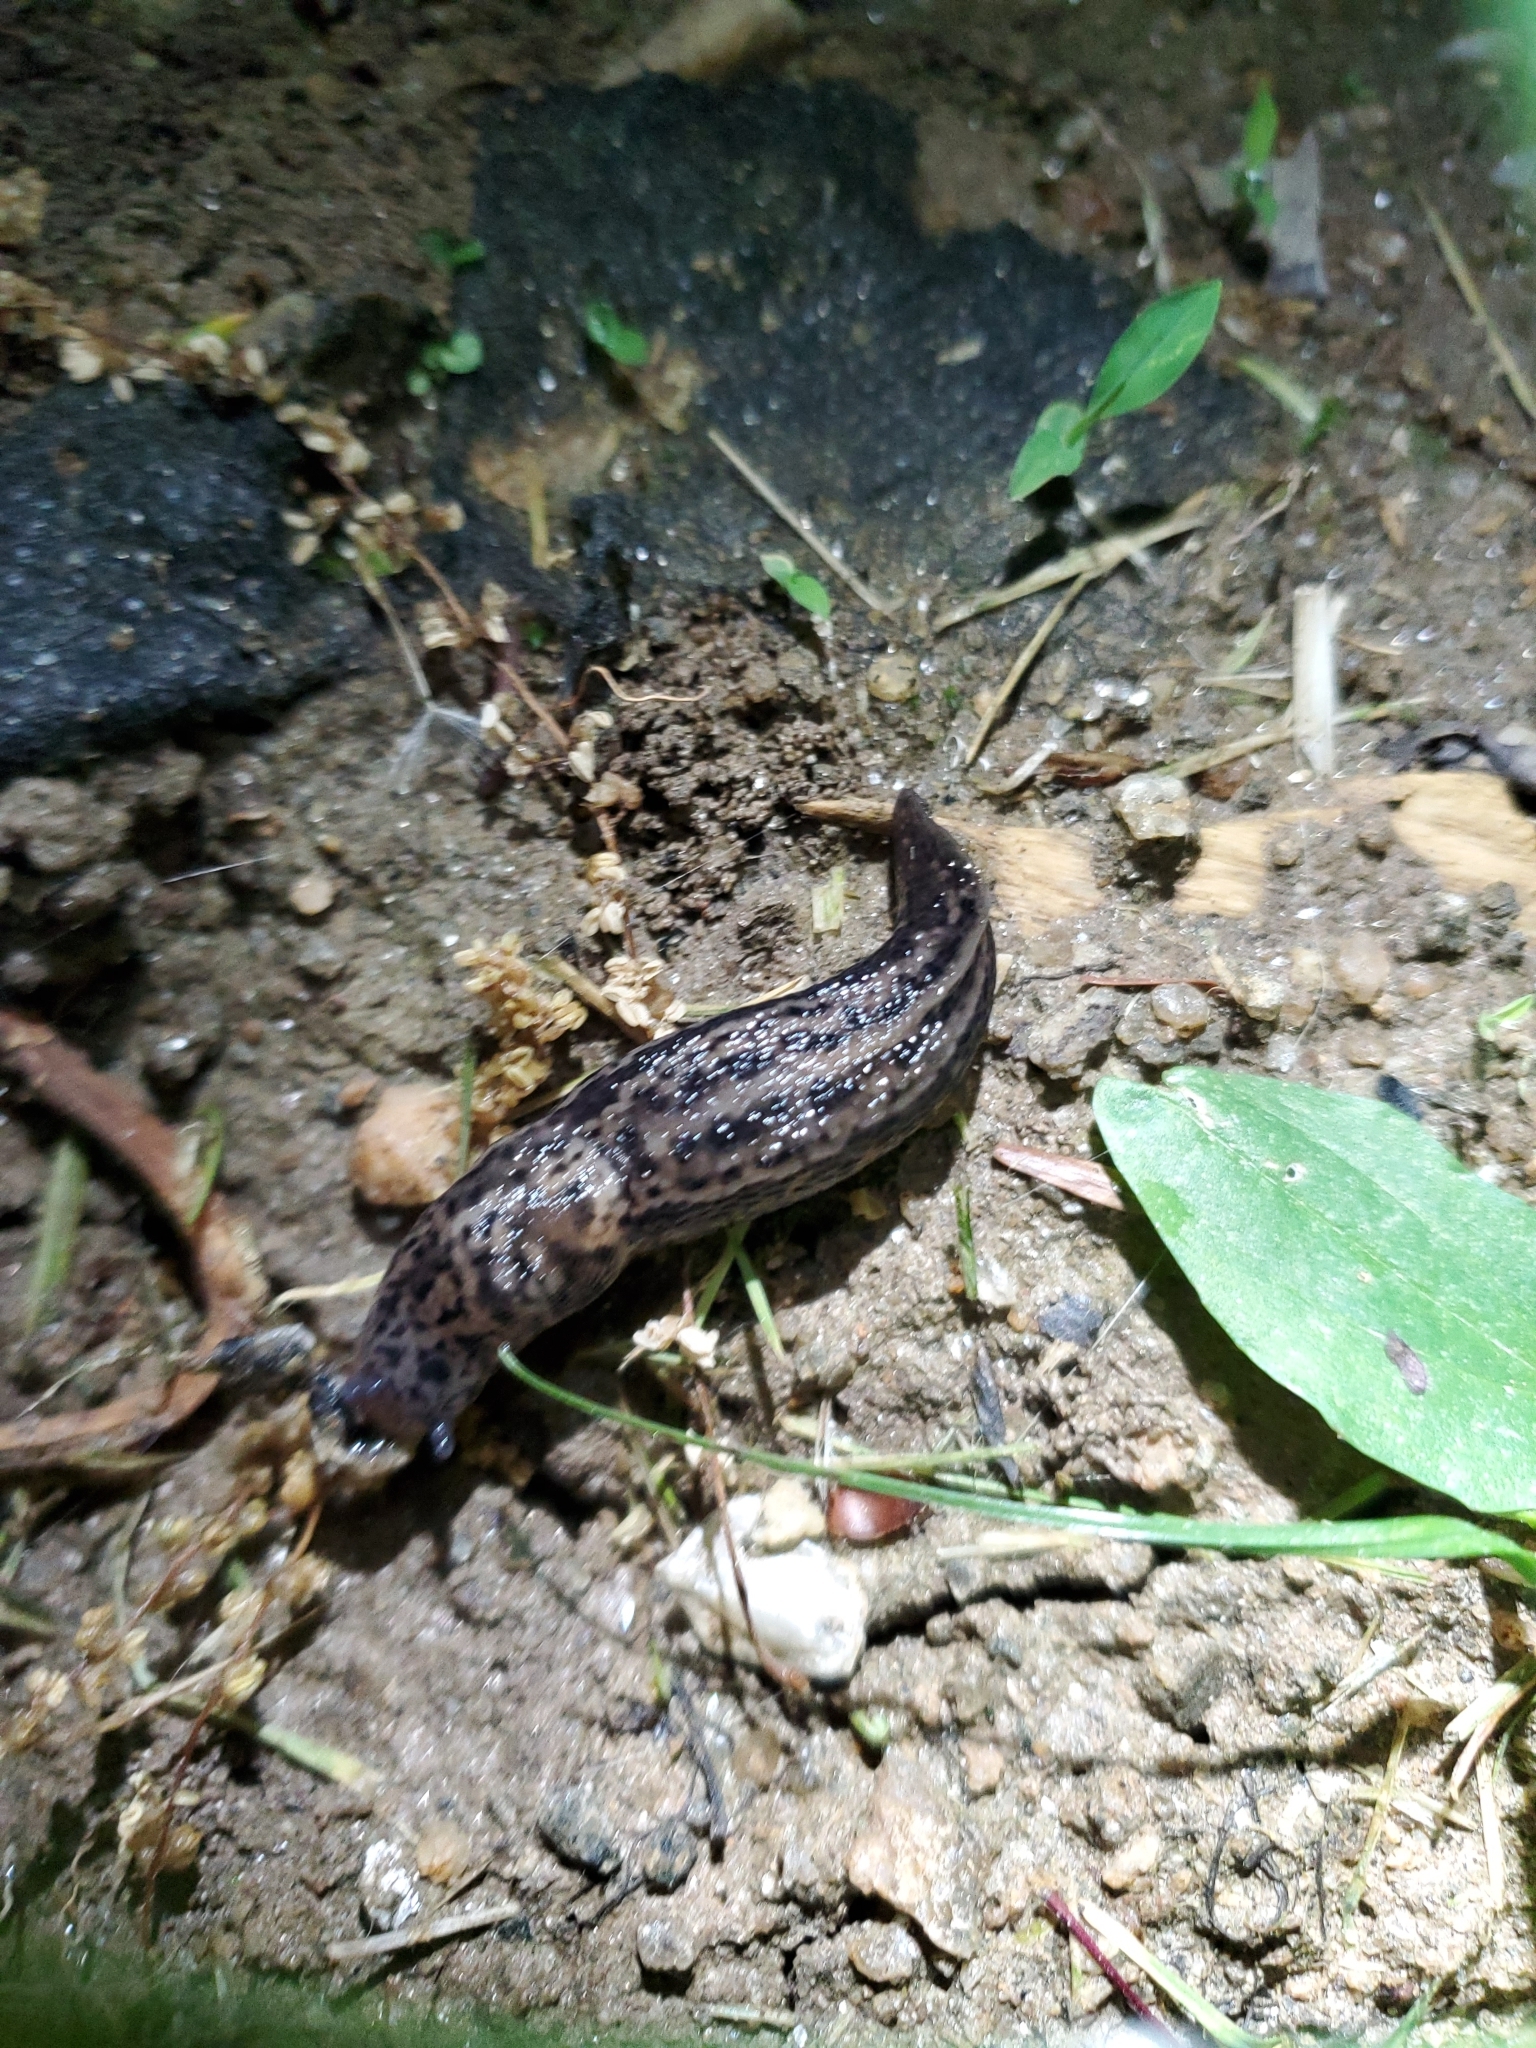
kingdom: Animalia
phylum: Mollusca
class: Gastropoda
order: Stylommatophora
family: Limacidae
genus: Limax
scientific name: Limax maximus
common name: Great grey slug
